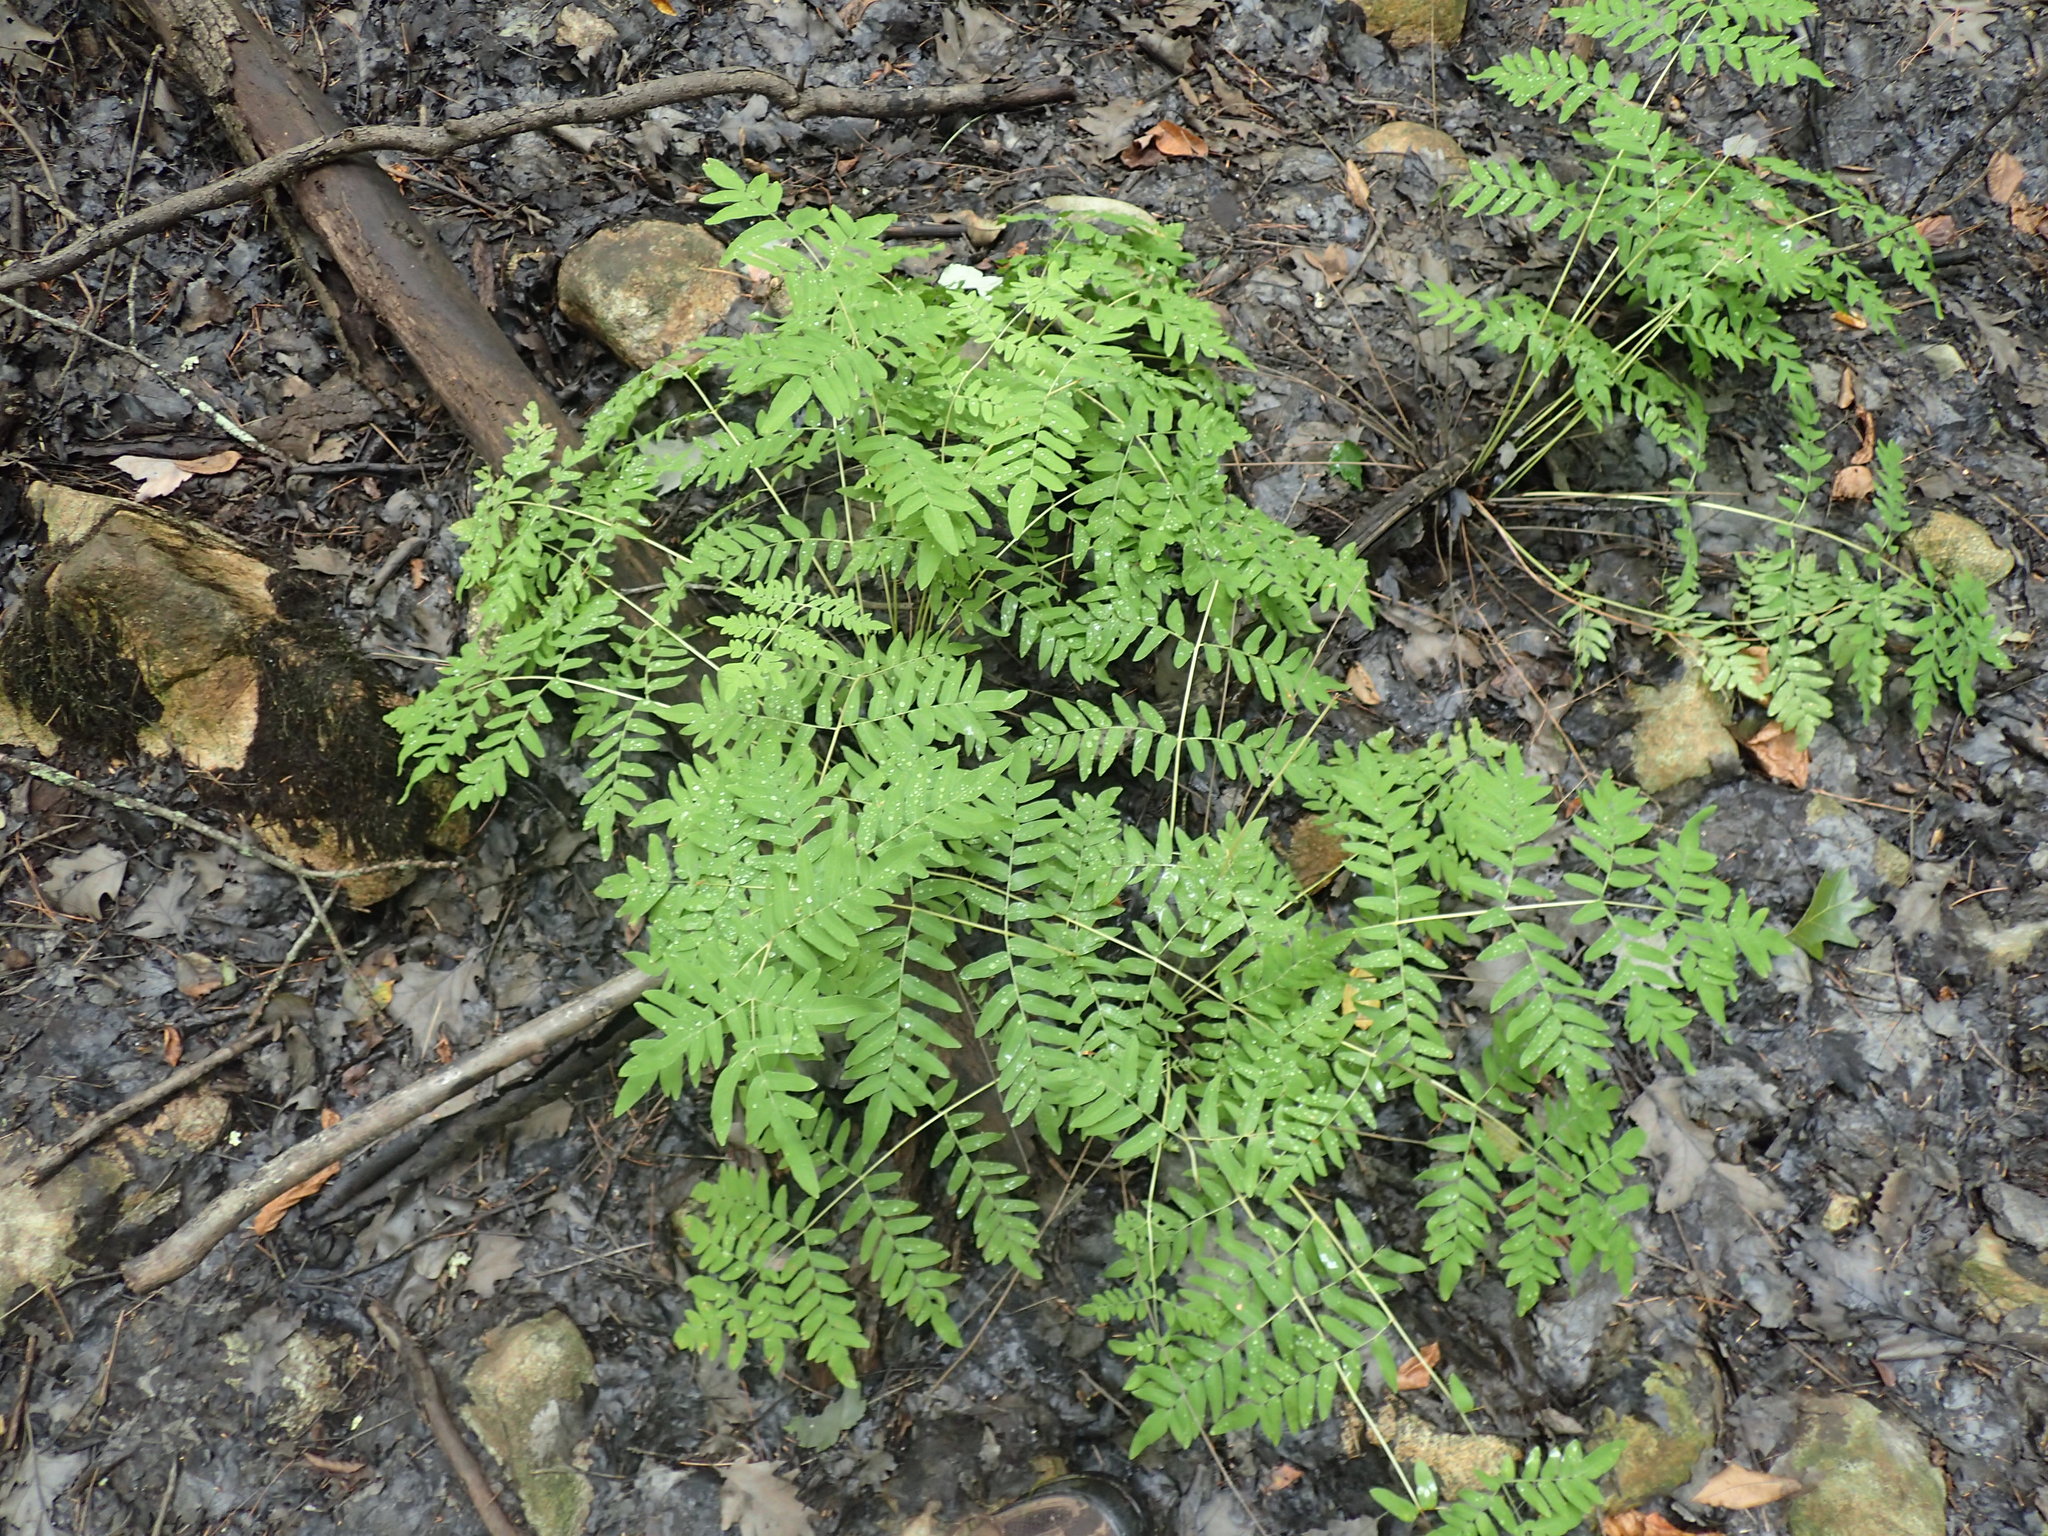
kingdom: Plantae
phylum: Tracheophyta
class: Polypodiopsida
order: Osmundales
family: Osmundaceae
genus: Osmunda
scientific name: Osmunda spectabilis
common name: American royal fern
